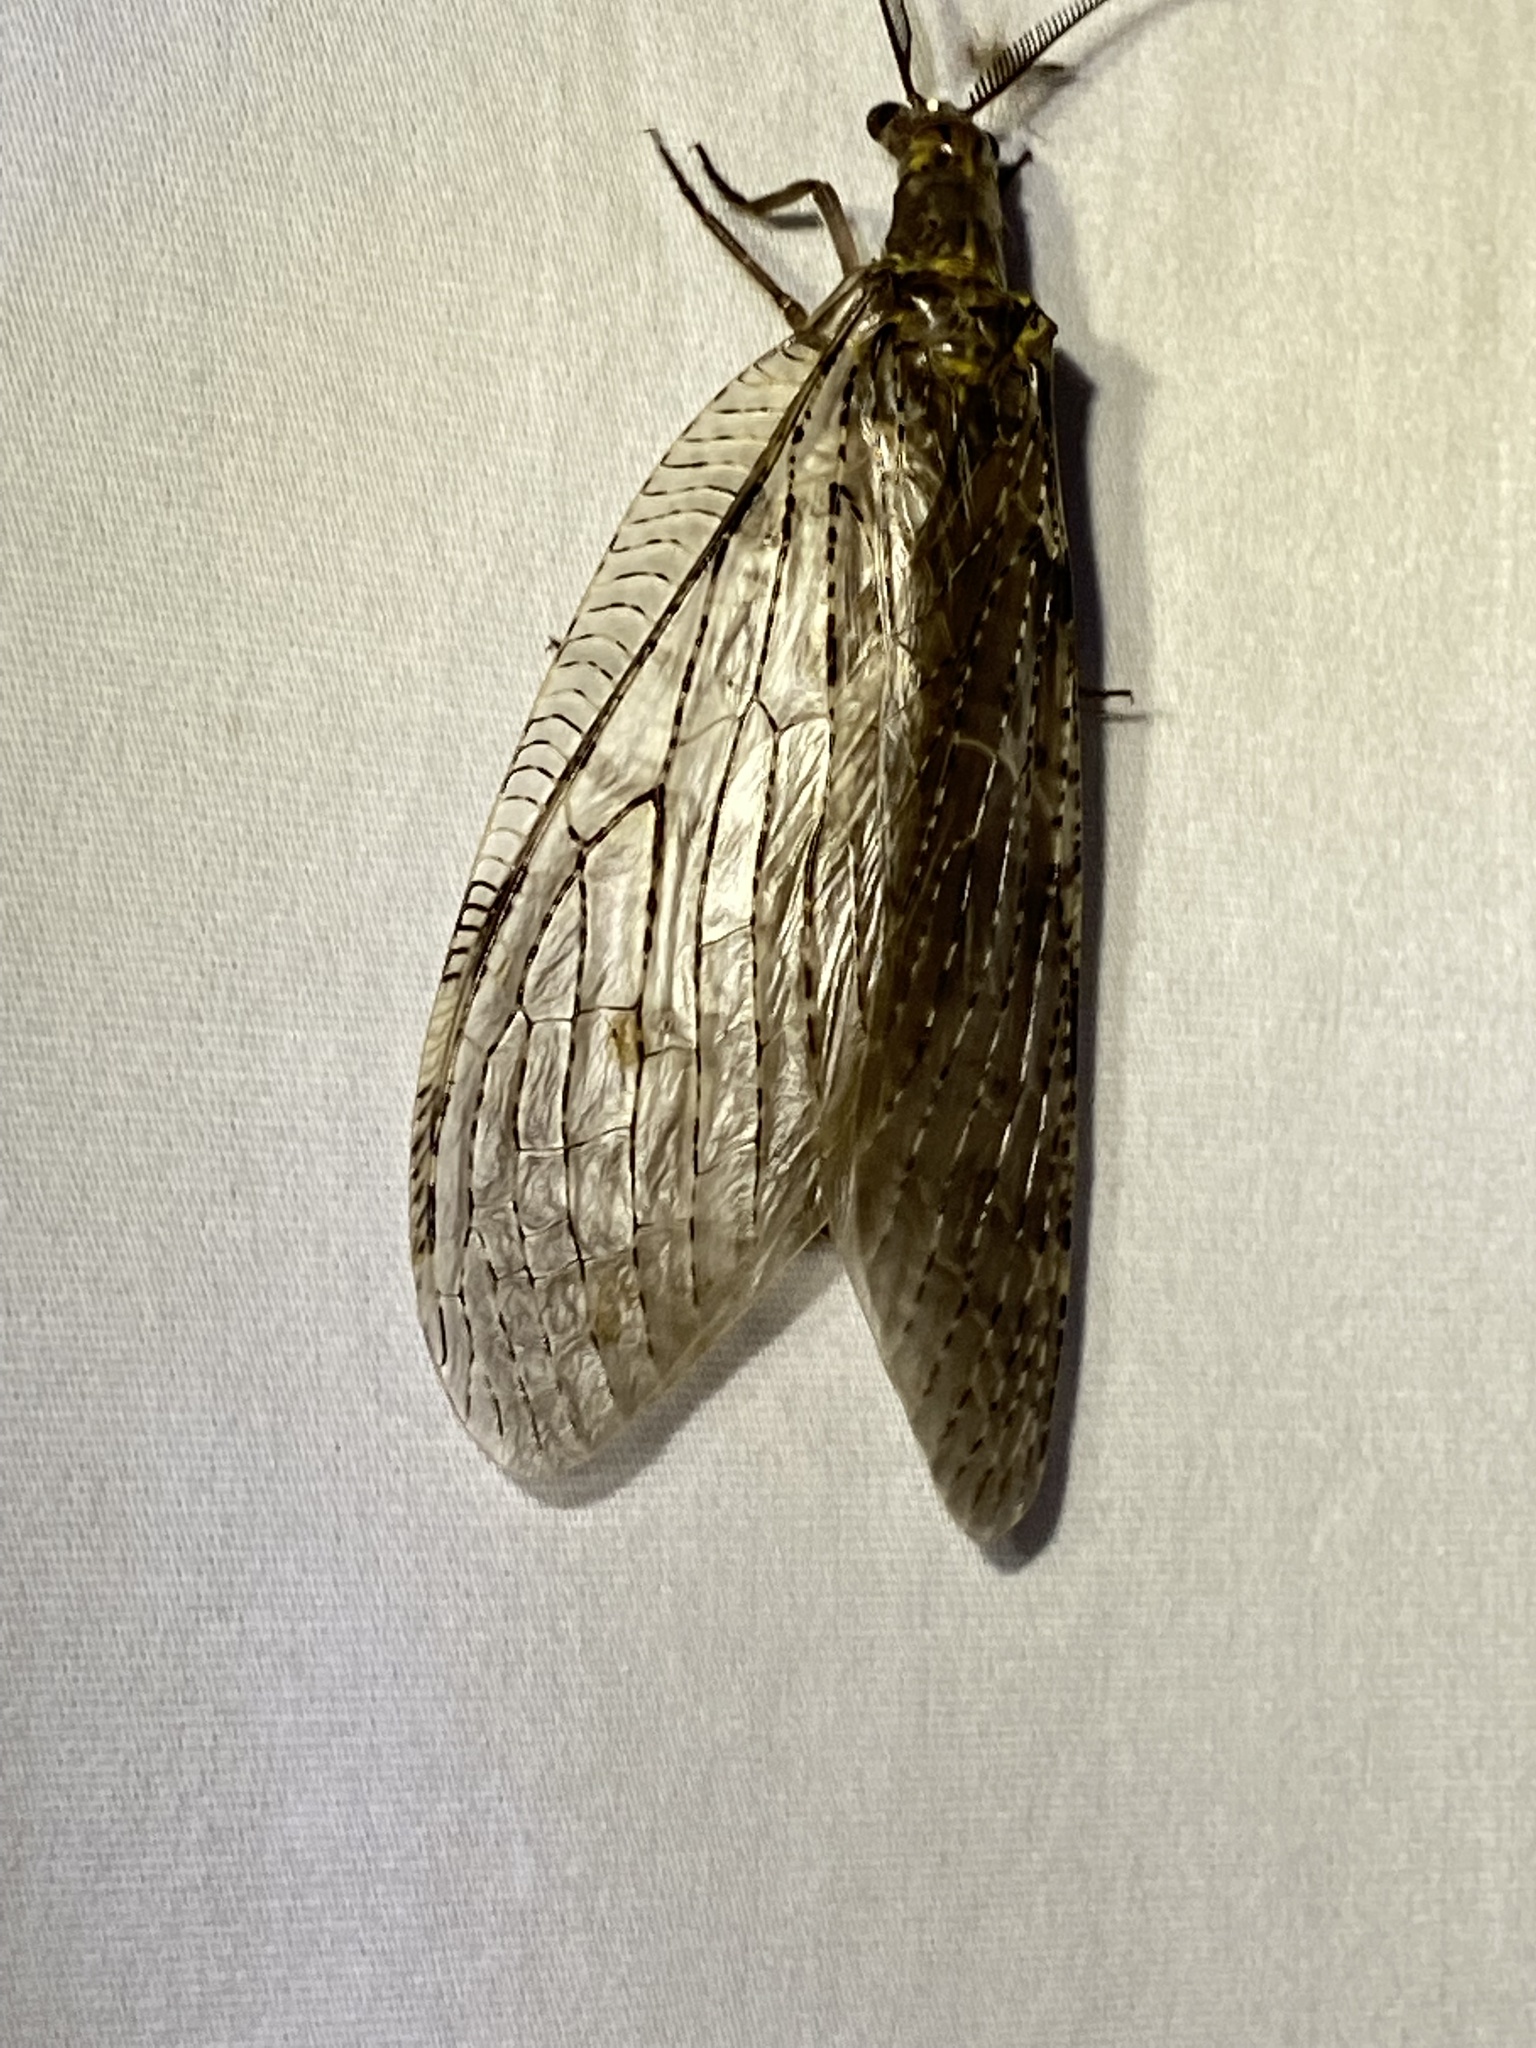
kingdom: Animalia
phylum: Arthropoda
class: Insecta
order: Megaloptera
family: Corydalidae
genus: Chauliodes
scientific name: Chauliodes pectinicornis
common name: Summer fishfly
